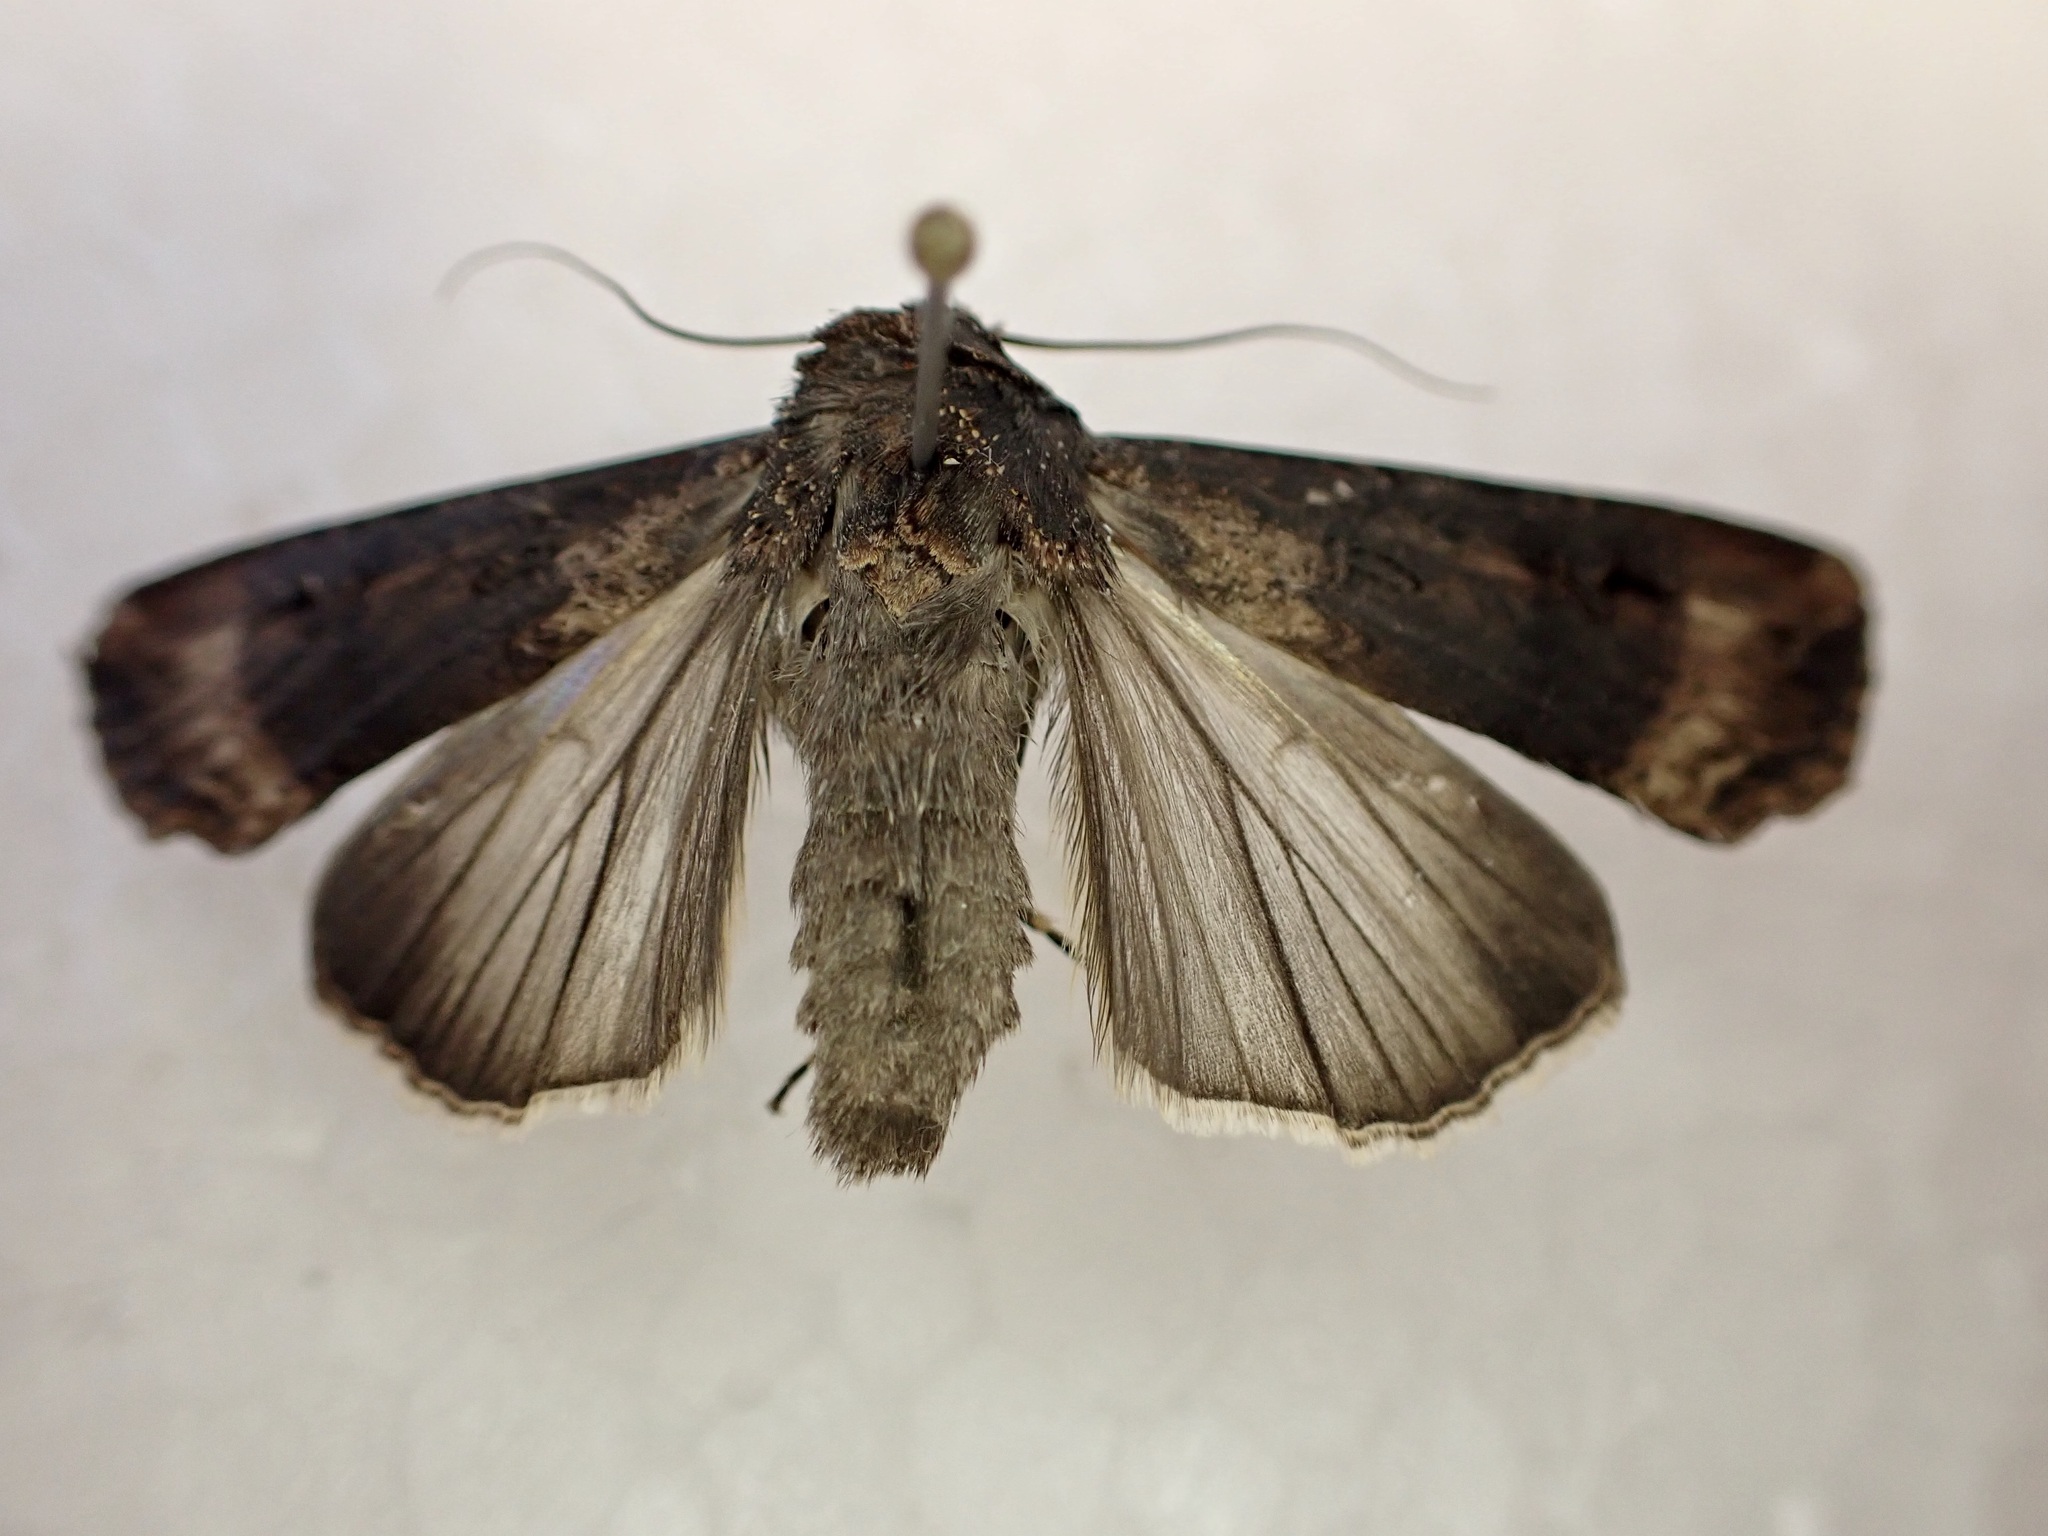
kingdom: Animalia
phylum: Arthropoda
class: Insecta
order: Lepidoptera
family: Noctuidae
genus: Agrotis
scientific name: Agrotis ipsilon
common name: Dark sword-grass
